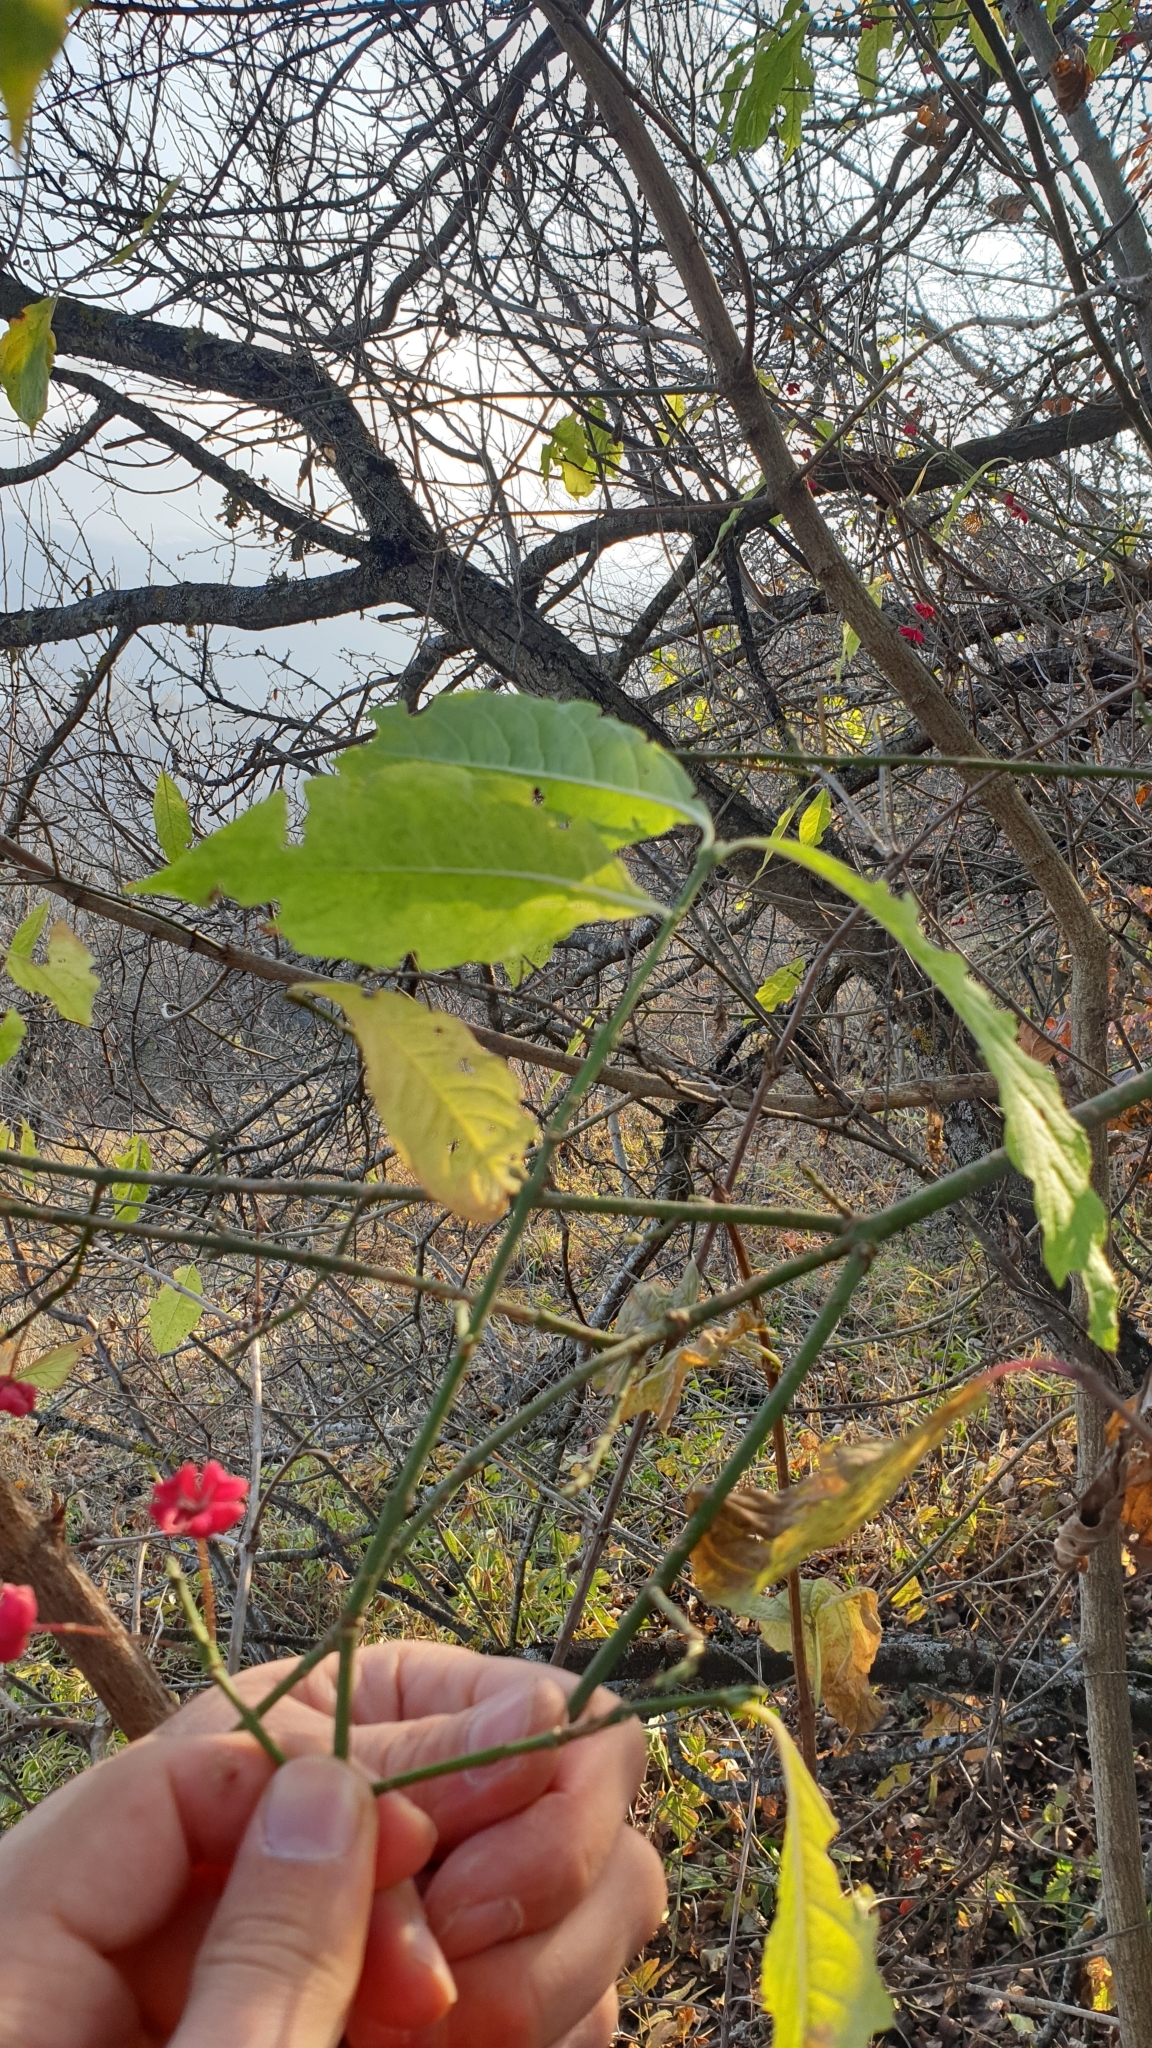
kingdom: Plantae
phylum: Tracheophyta
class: Magnoliopsida
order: Celastrales
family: Celastraceae
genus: Euonymus
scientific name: Euonymus europaeus
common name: Spindle
